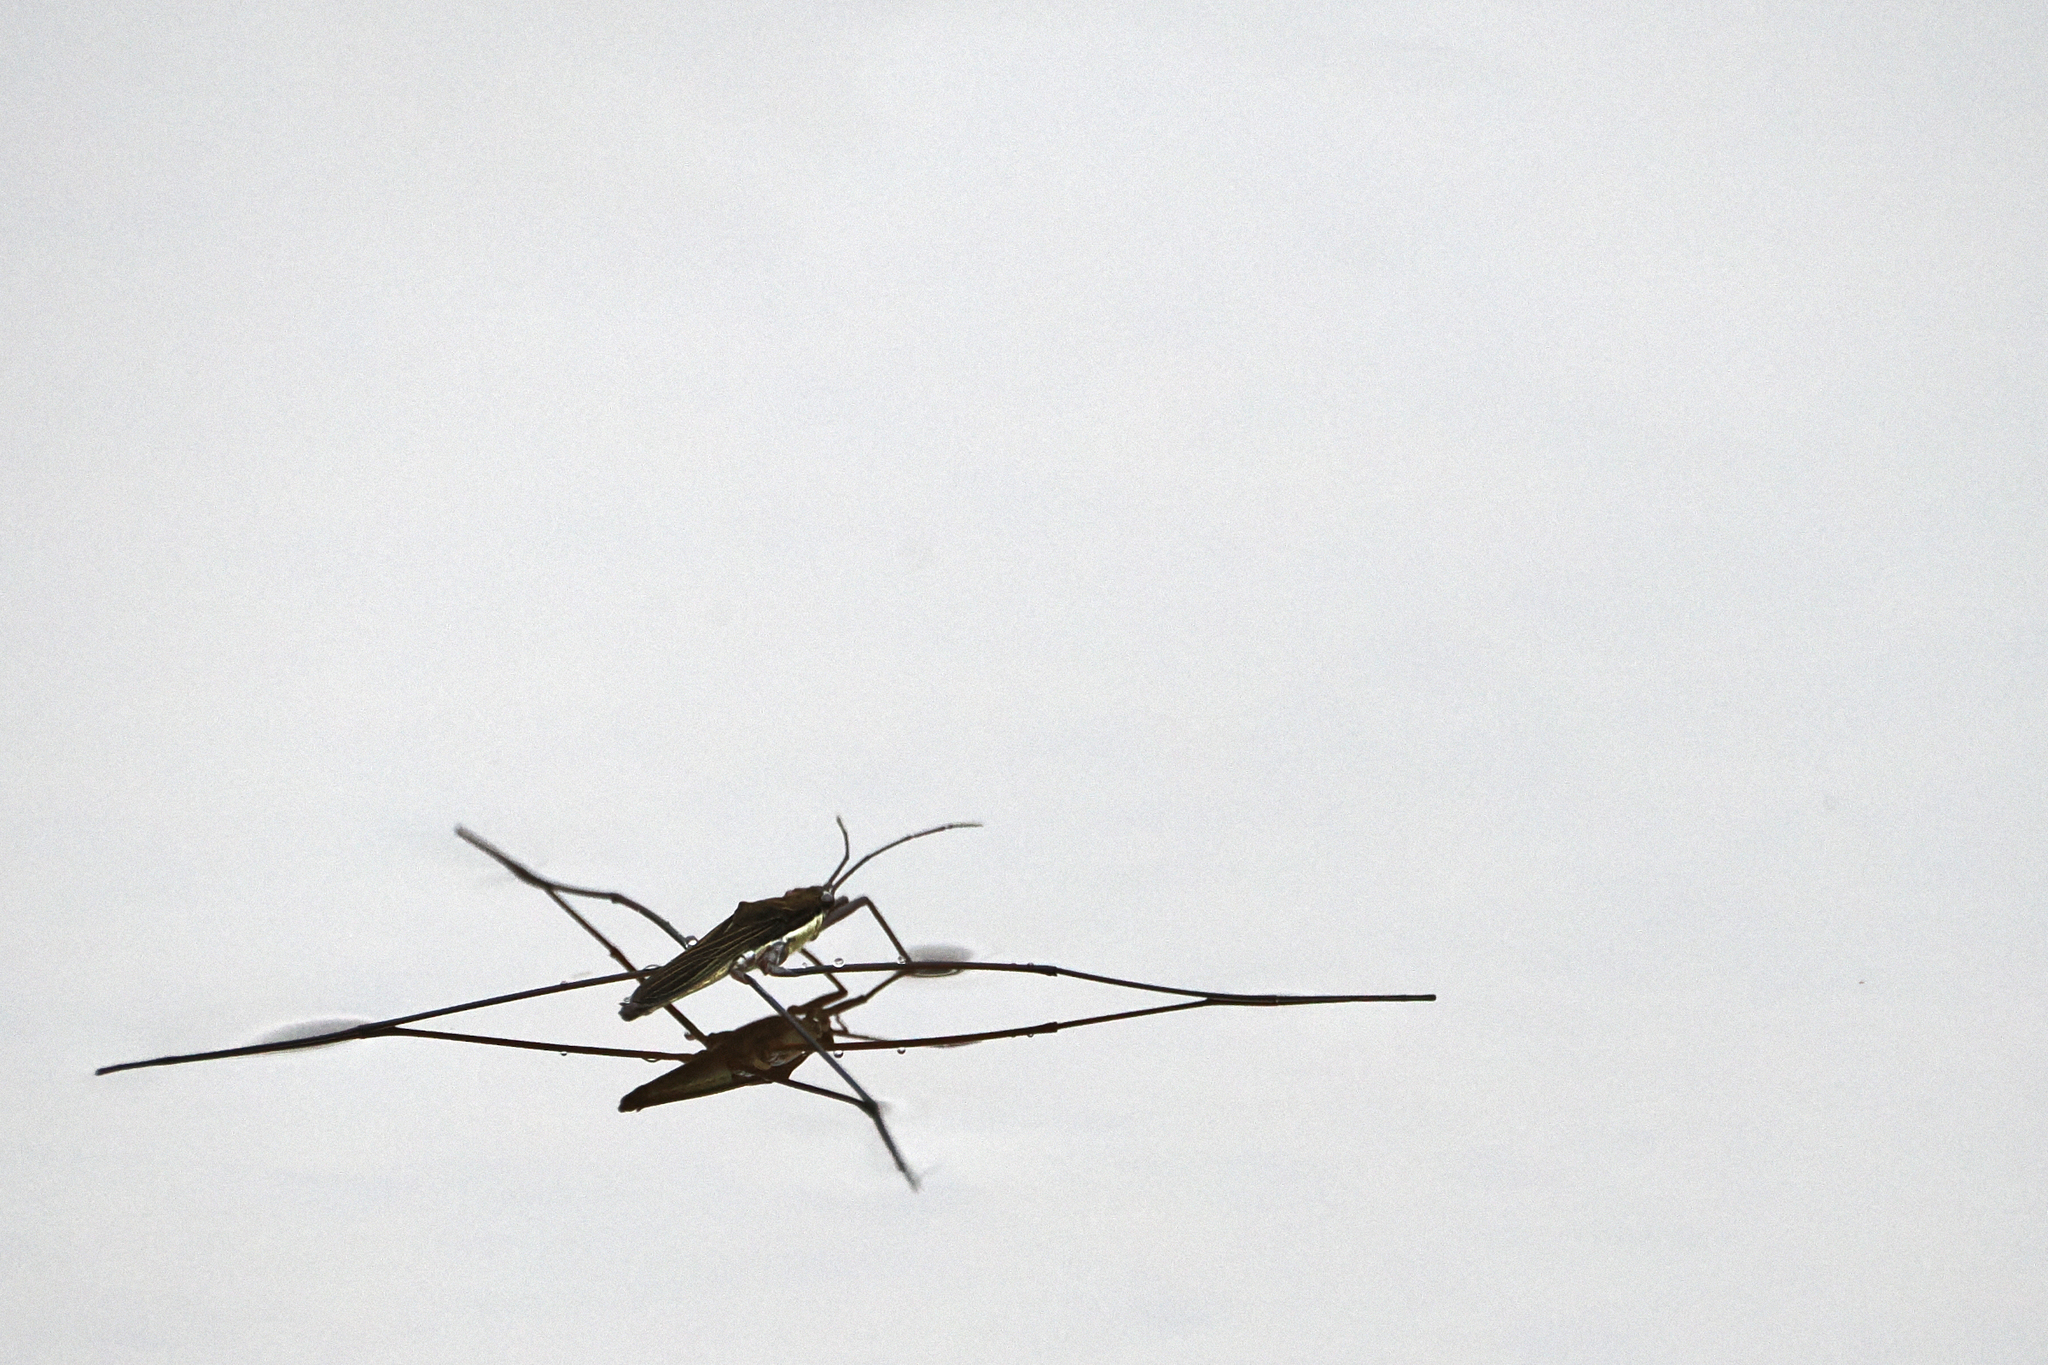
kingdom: Animalia
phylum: Arthropoda
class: Insecta
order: Hemiptera
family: Gerridae
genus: Limnoporus
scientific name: Limnoporus
